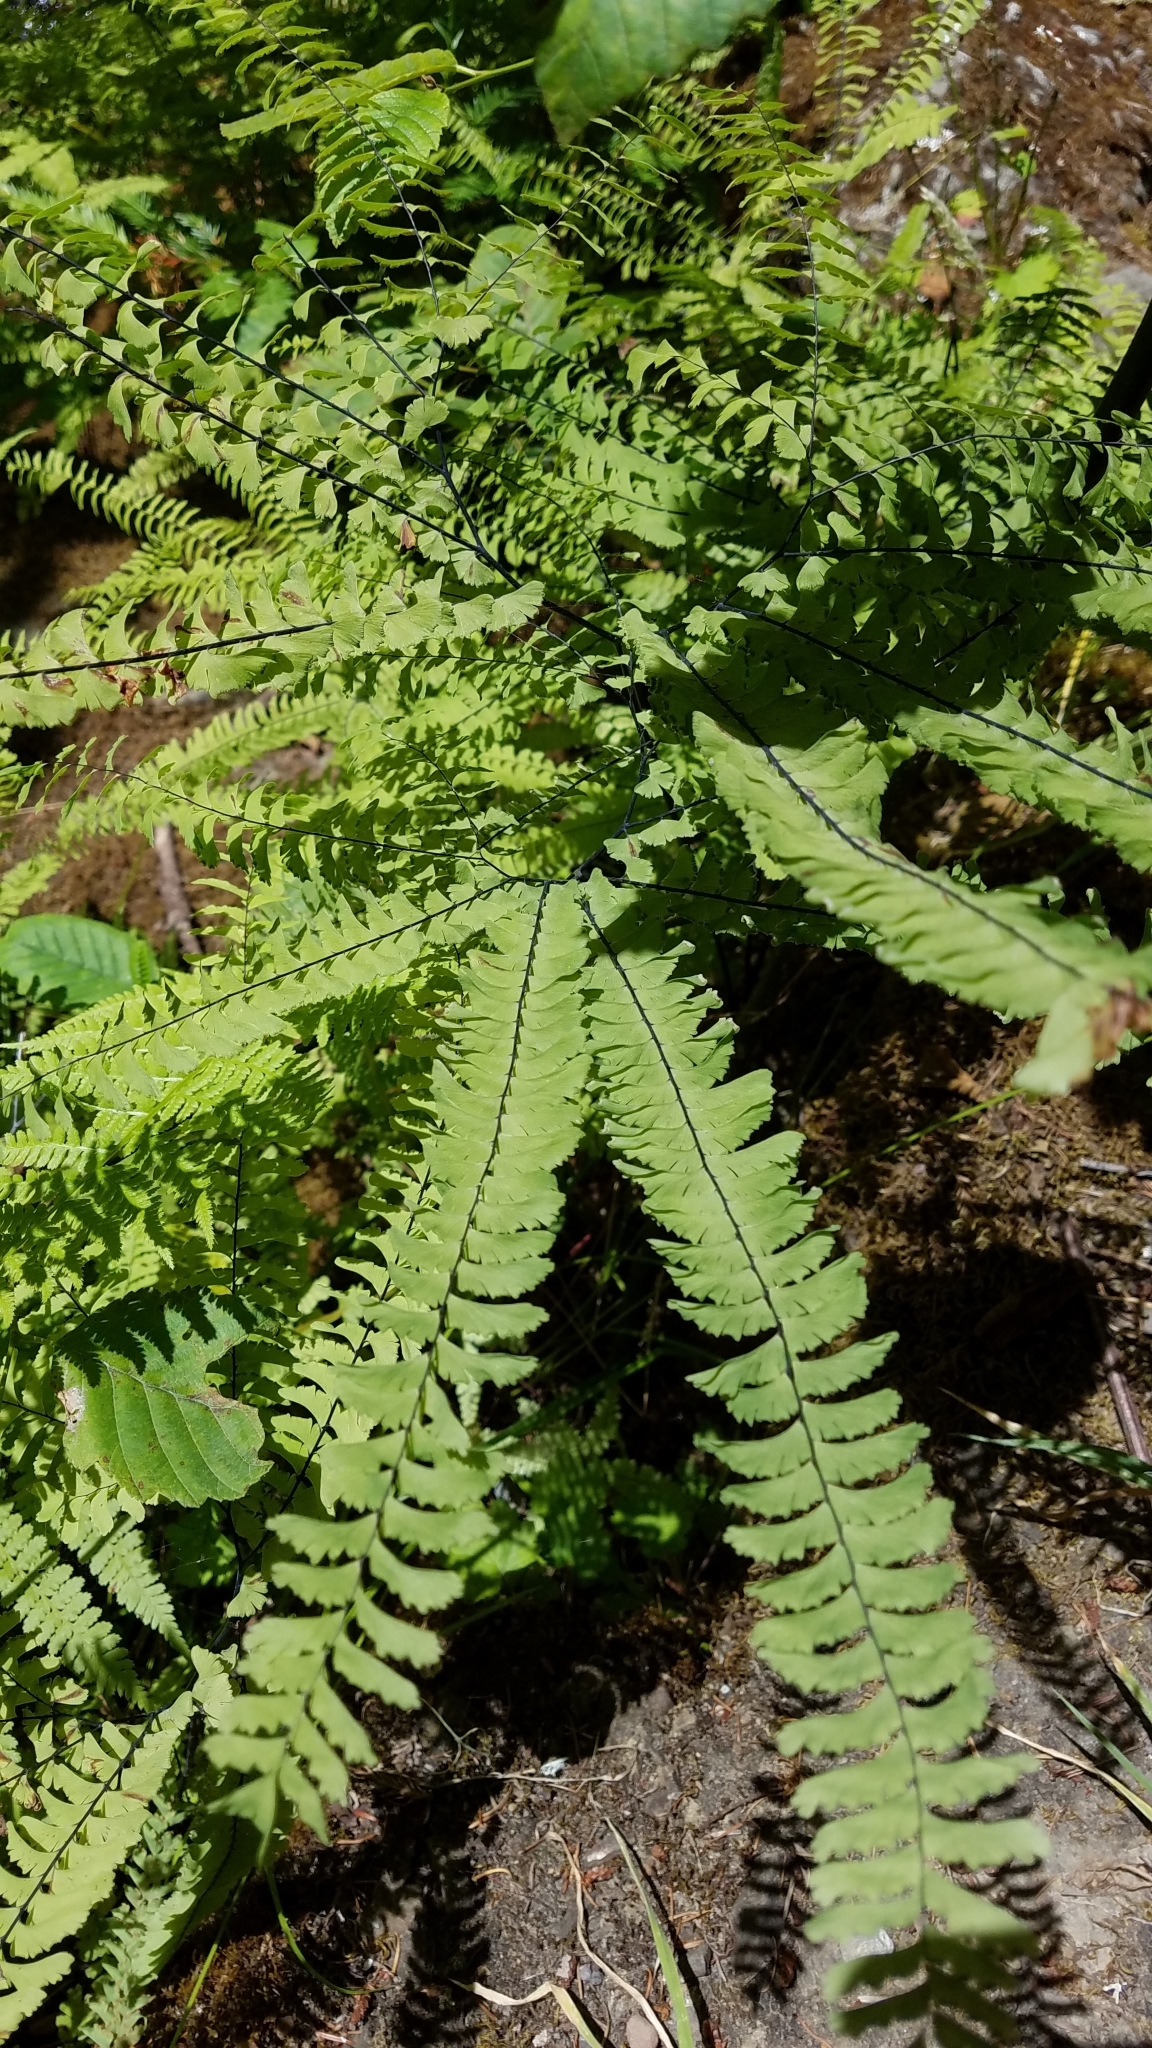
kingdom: Plantae
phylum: Tracheophyta
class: Polypodiopsida
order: Polypodiales
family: Pteridaceae
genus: Adiantum
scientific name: Adiantum aleuticum
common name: Aleutian maidenhair fern
